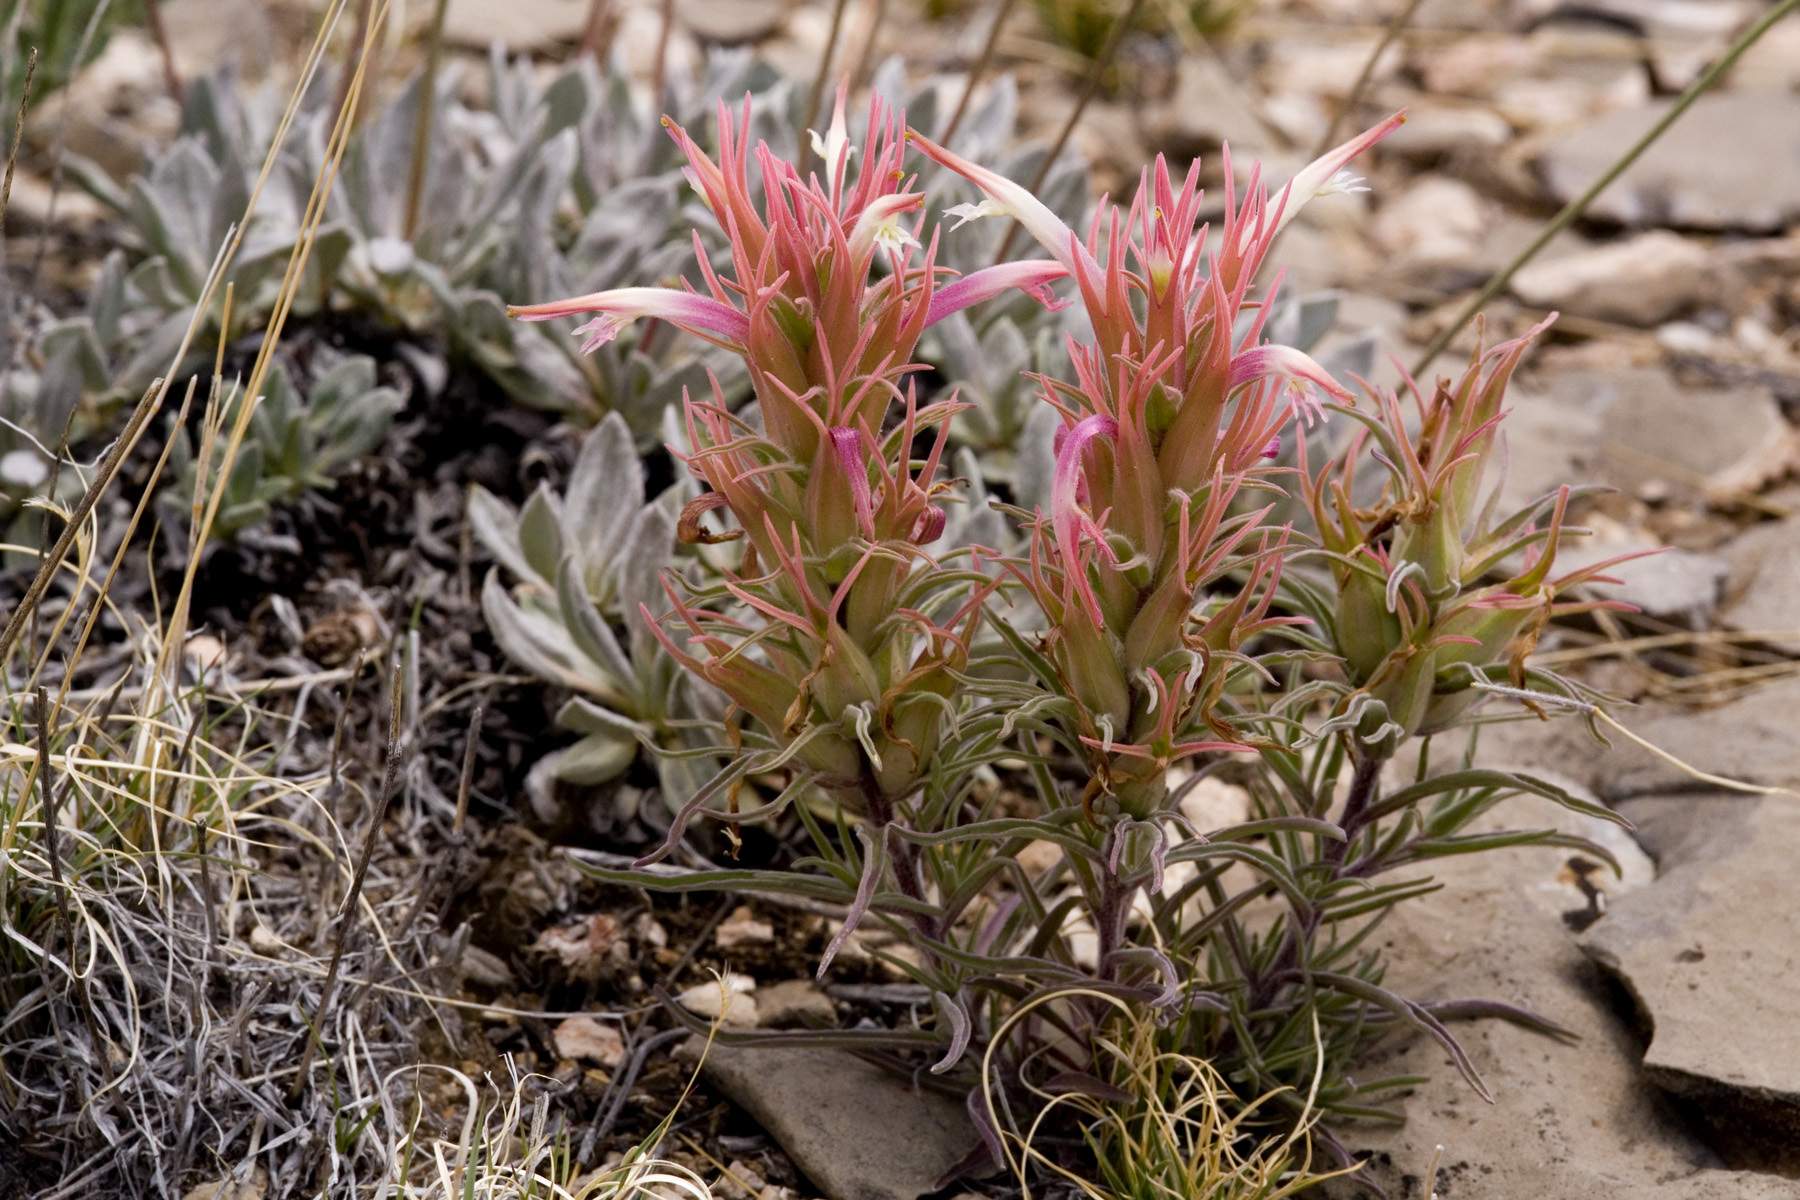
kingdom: Plantae
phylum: Tracheophyta
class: Magnoliopsida
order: Lamiales
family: Orobanchaceae
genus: Castilleja
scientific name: Castilleja sessiliflora
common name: Downy paintbrush
